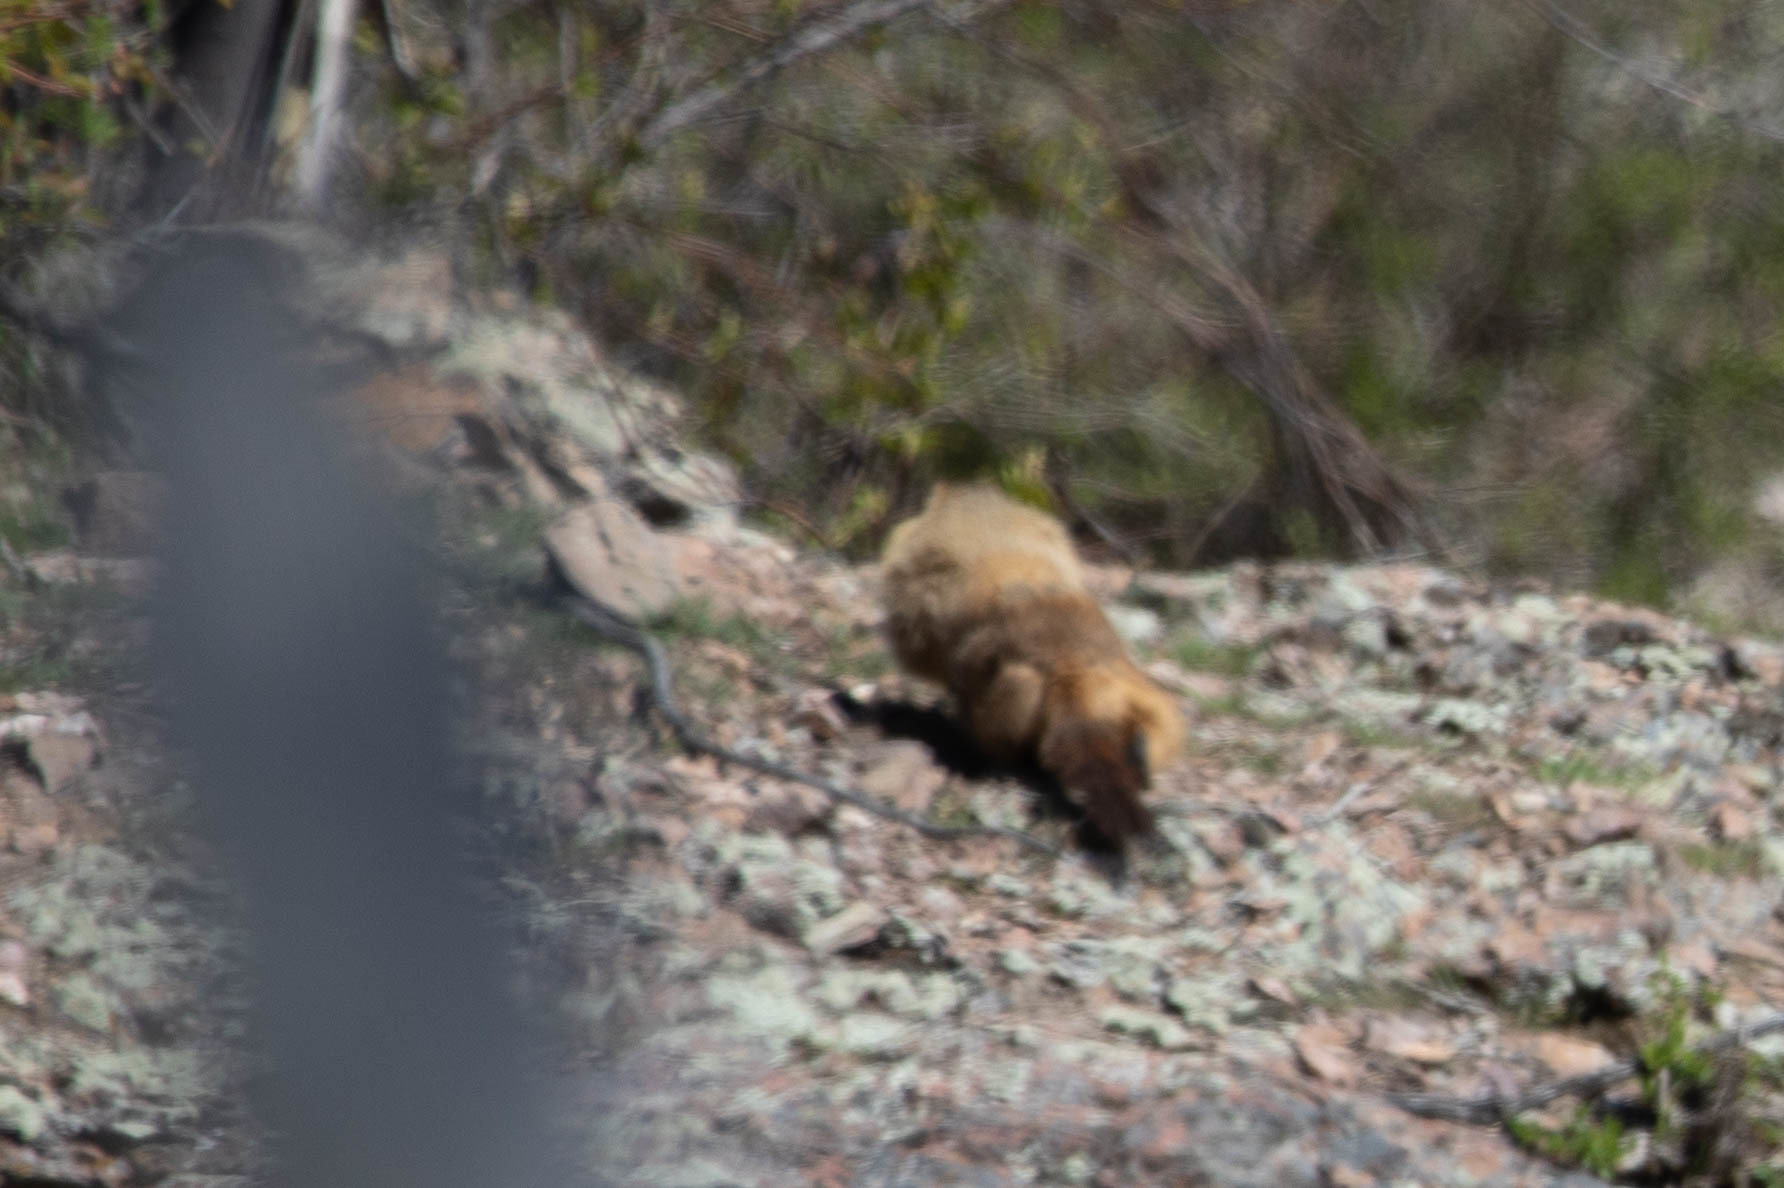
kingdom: Animalia
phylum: Chordata
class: Mammalia
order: Rodentia
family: Sciuridae
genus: Marmota
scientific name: Marmota flaviventris
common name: Yellow-bellied marmot
